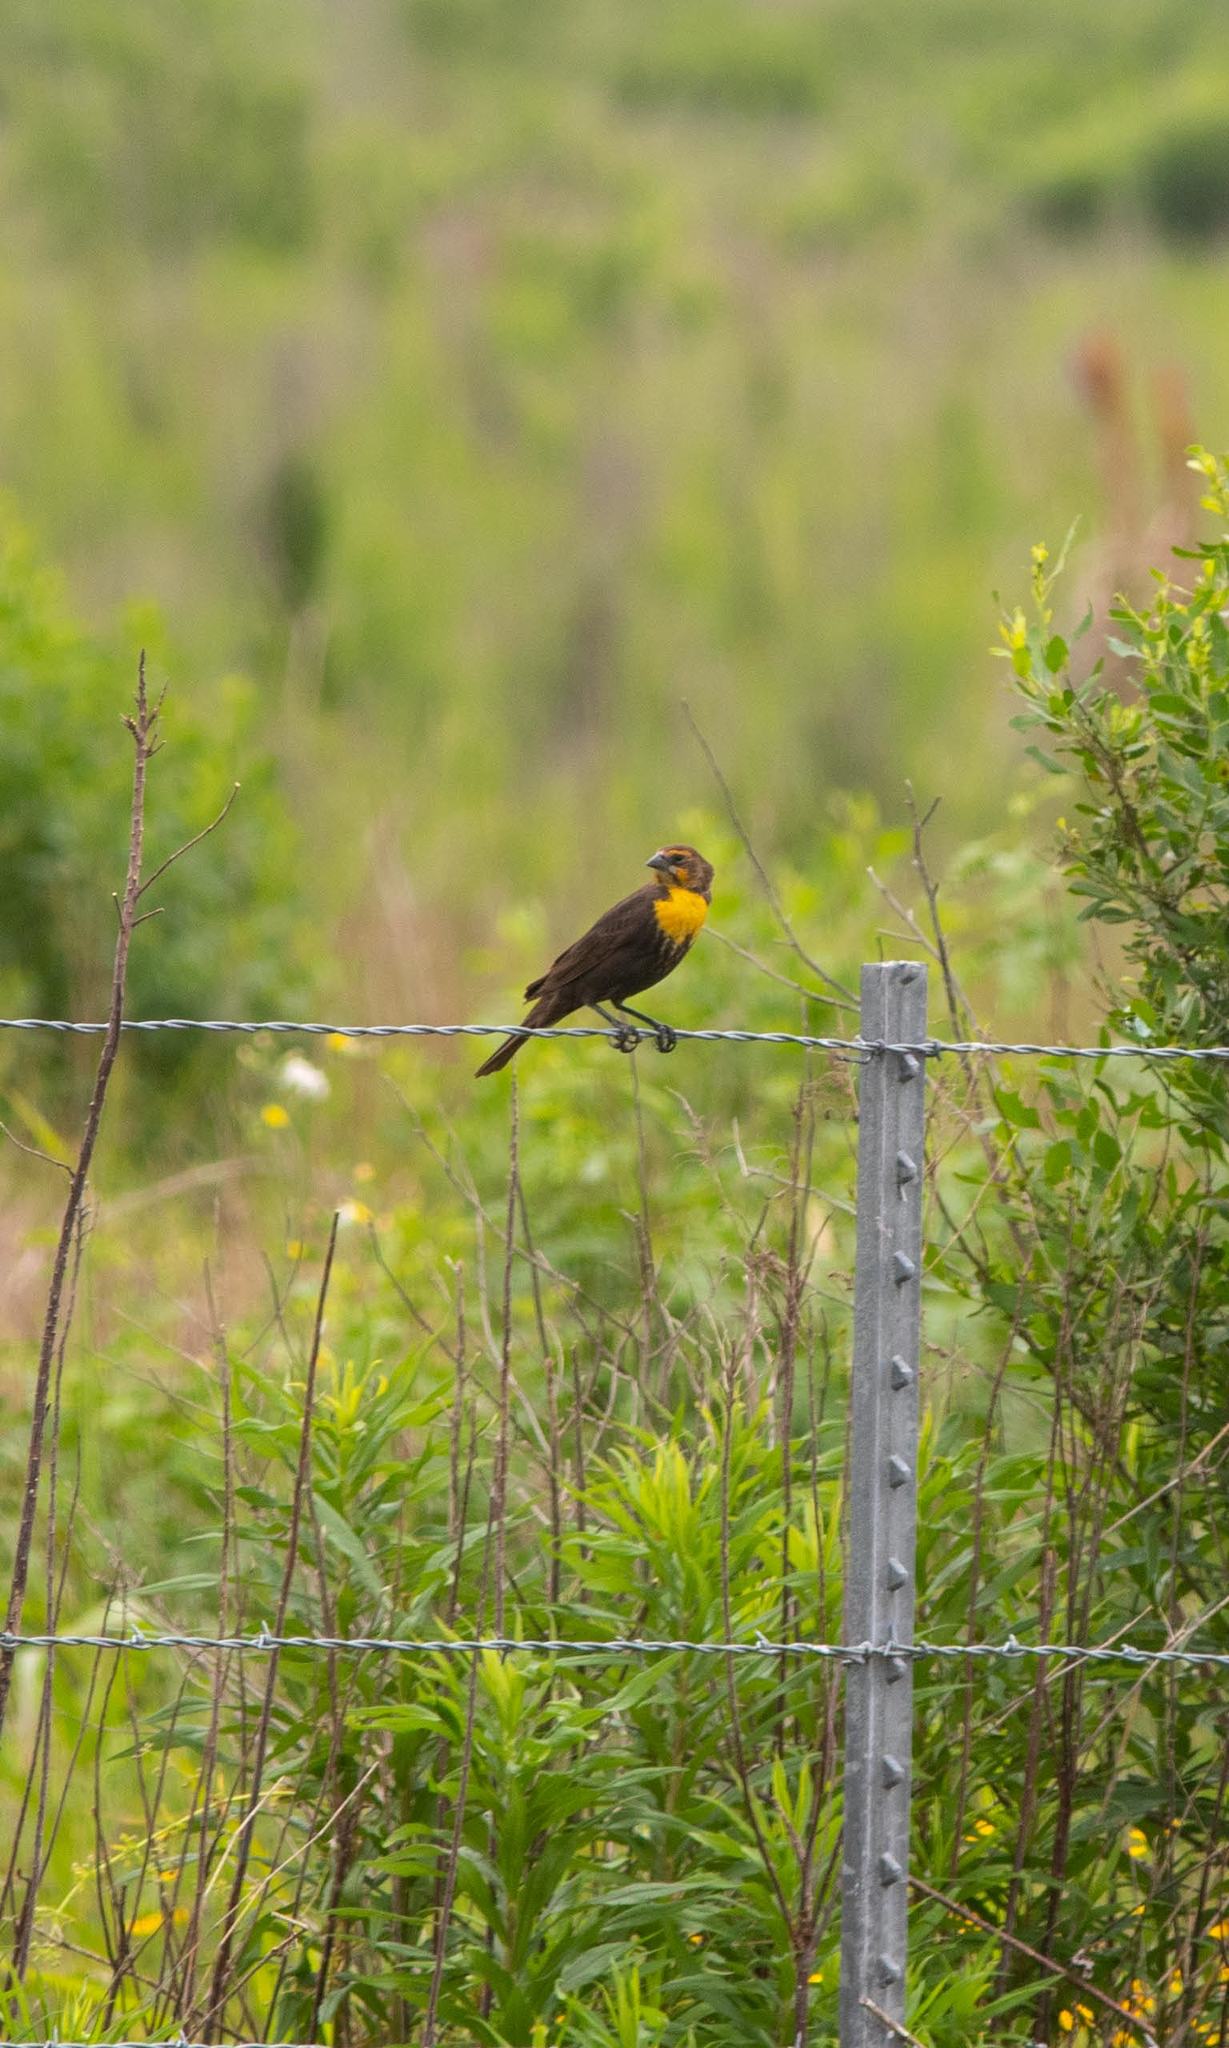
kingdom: Animalia
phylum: Chordata
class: Aves
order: Passeriformes
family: Icteridae
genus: Xanthocephalus
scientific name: Xanthocephalus xanthocephalus
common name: Yellow-headed blackbird
